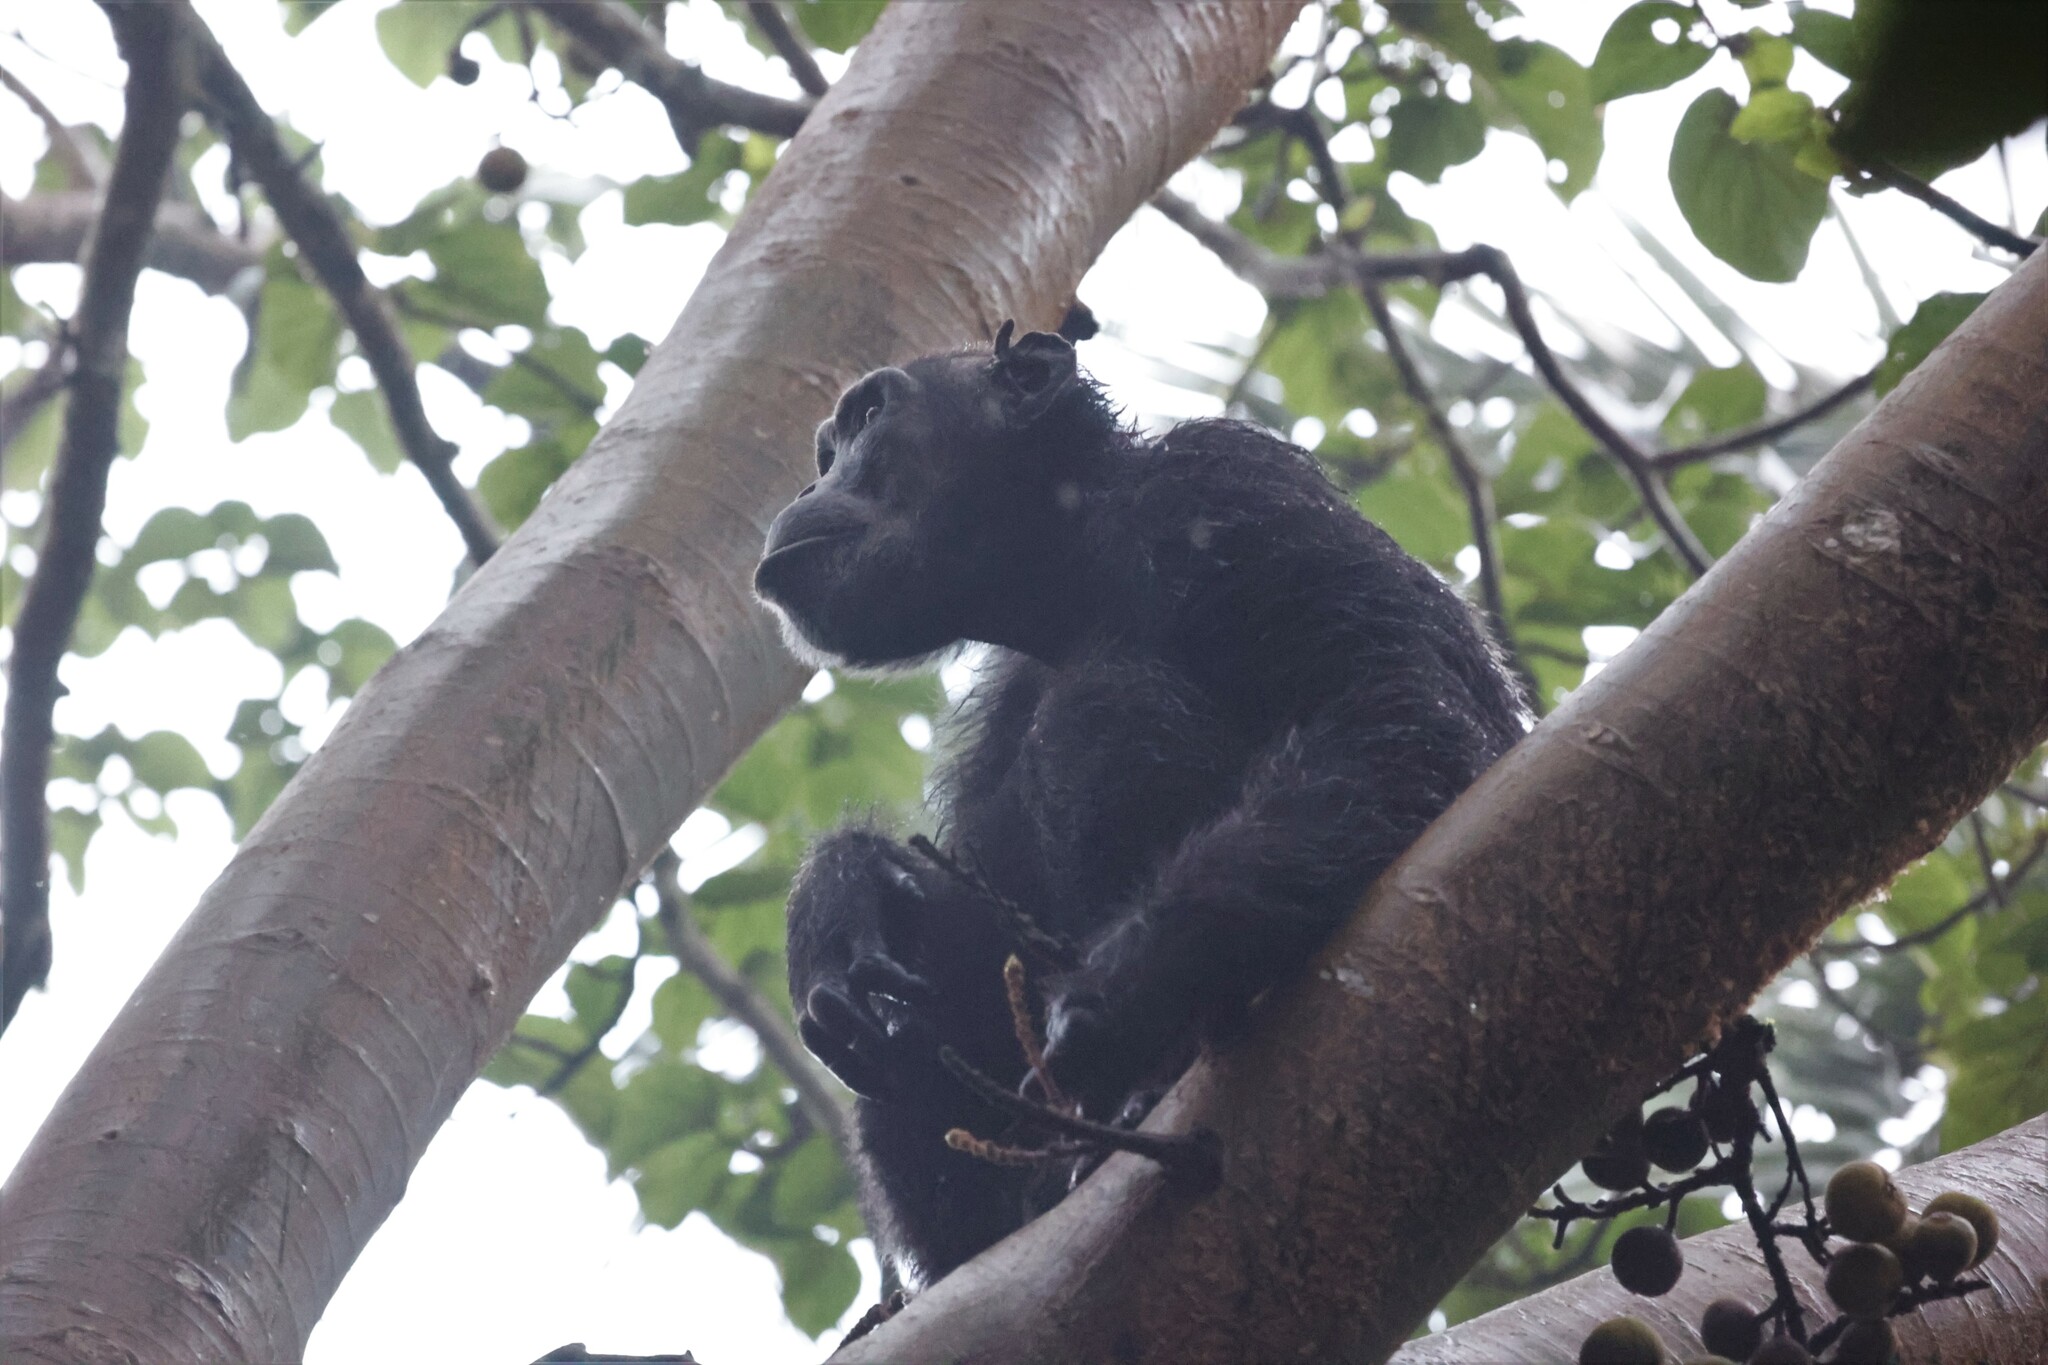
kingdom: Animalia
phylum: Chordata
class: Mammalia
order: Primates
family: Hominidae
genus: Pan
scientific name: Pan troglodytes
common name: Chimpanzee
